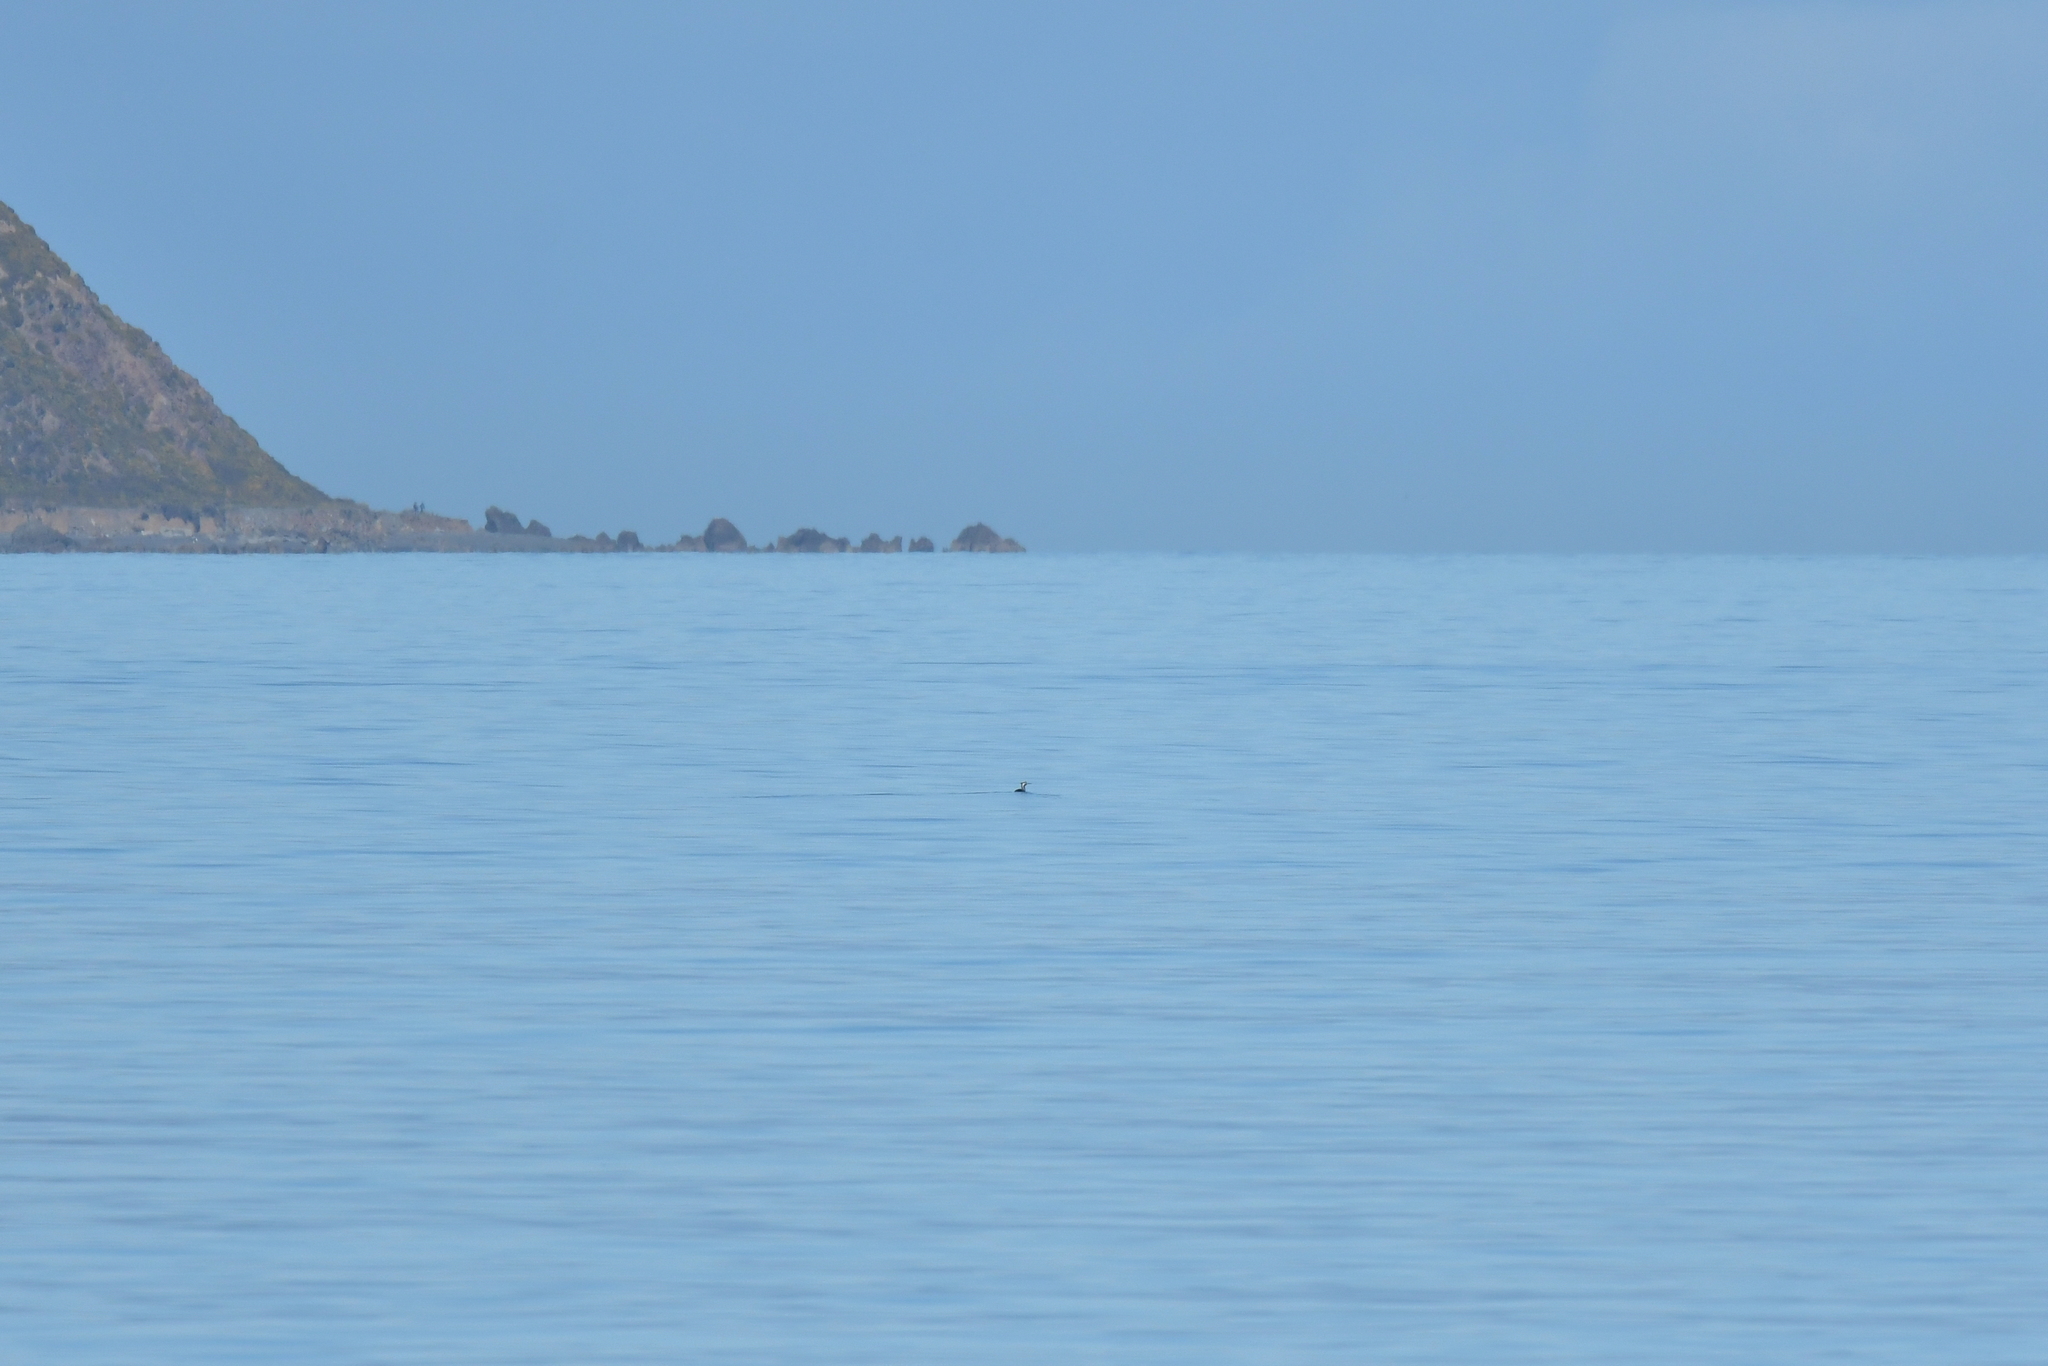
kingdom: Animalia
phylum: Chordata
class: Aves
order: Suliformes
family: Phalacrocoracidae
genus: Phalacrocorax
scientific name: Phalacrocorax punctatus
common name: Spotted shag
